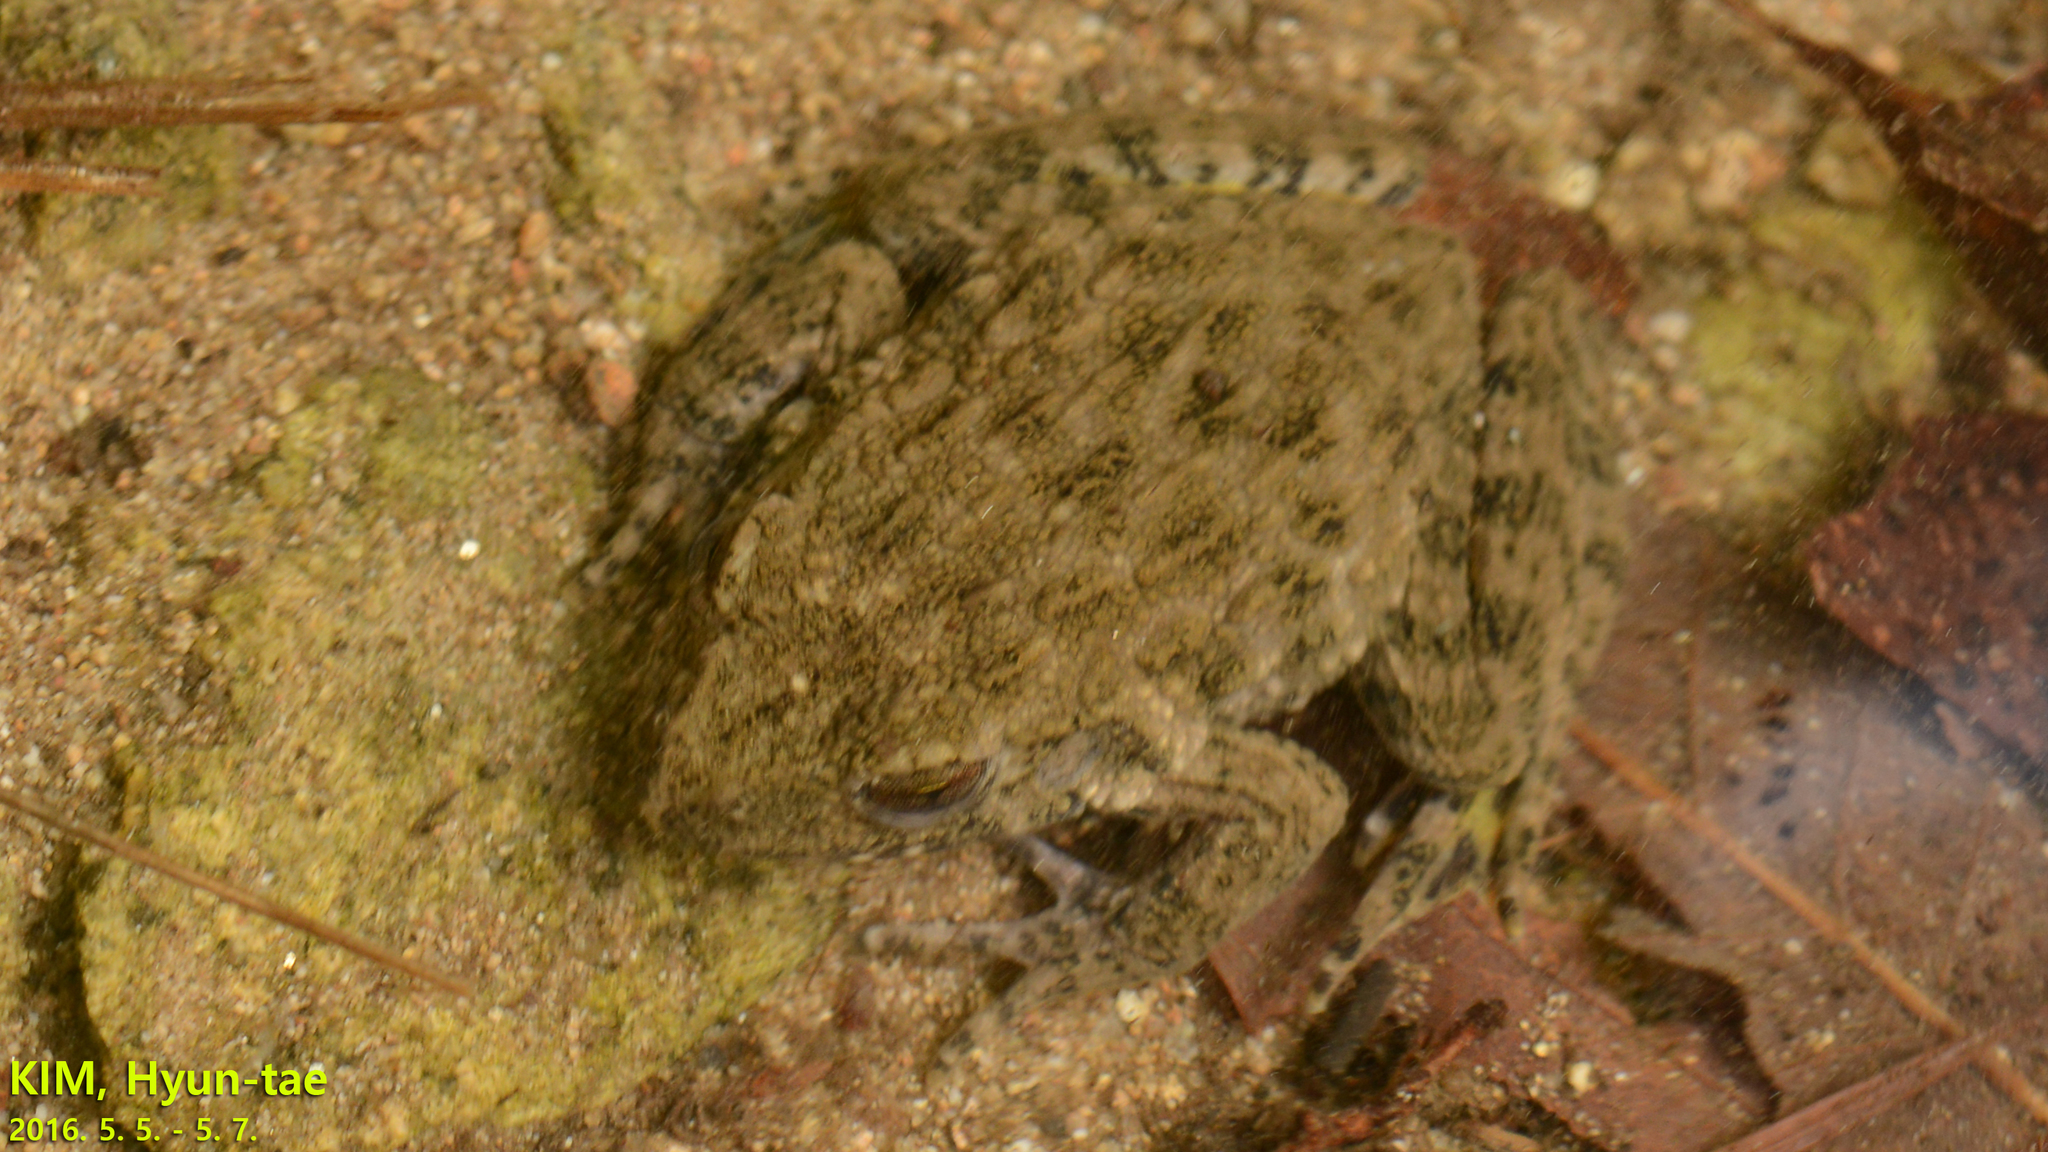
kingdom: Animalia
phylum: Chordata
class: Amphibia
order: Anura
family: Ranidae
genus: Glandirana
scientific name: Glandirana emeljanovi
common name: Northeast china rough-skinned frog
